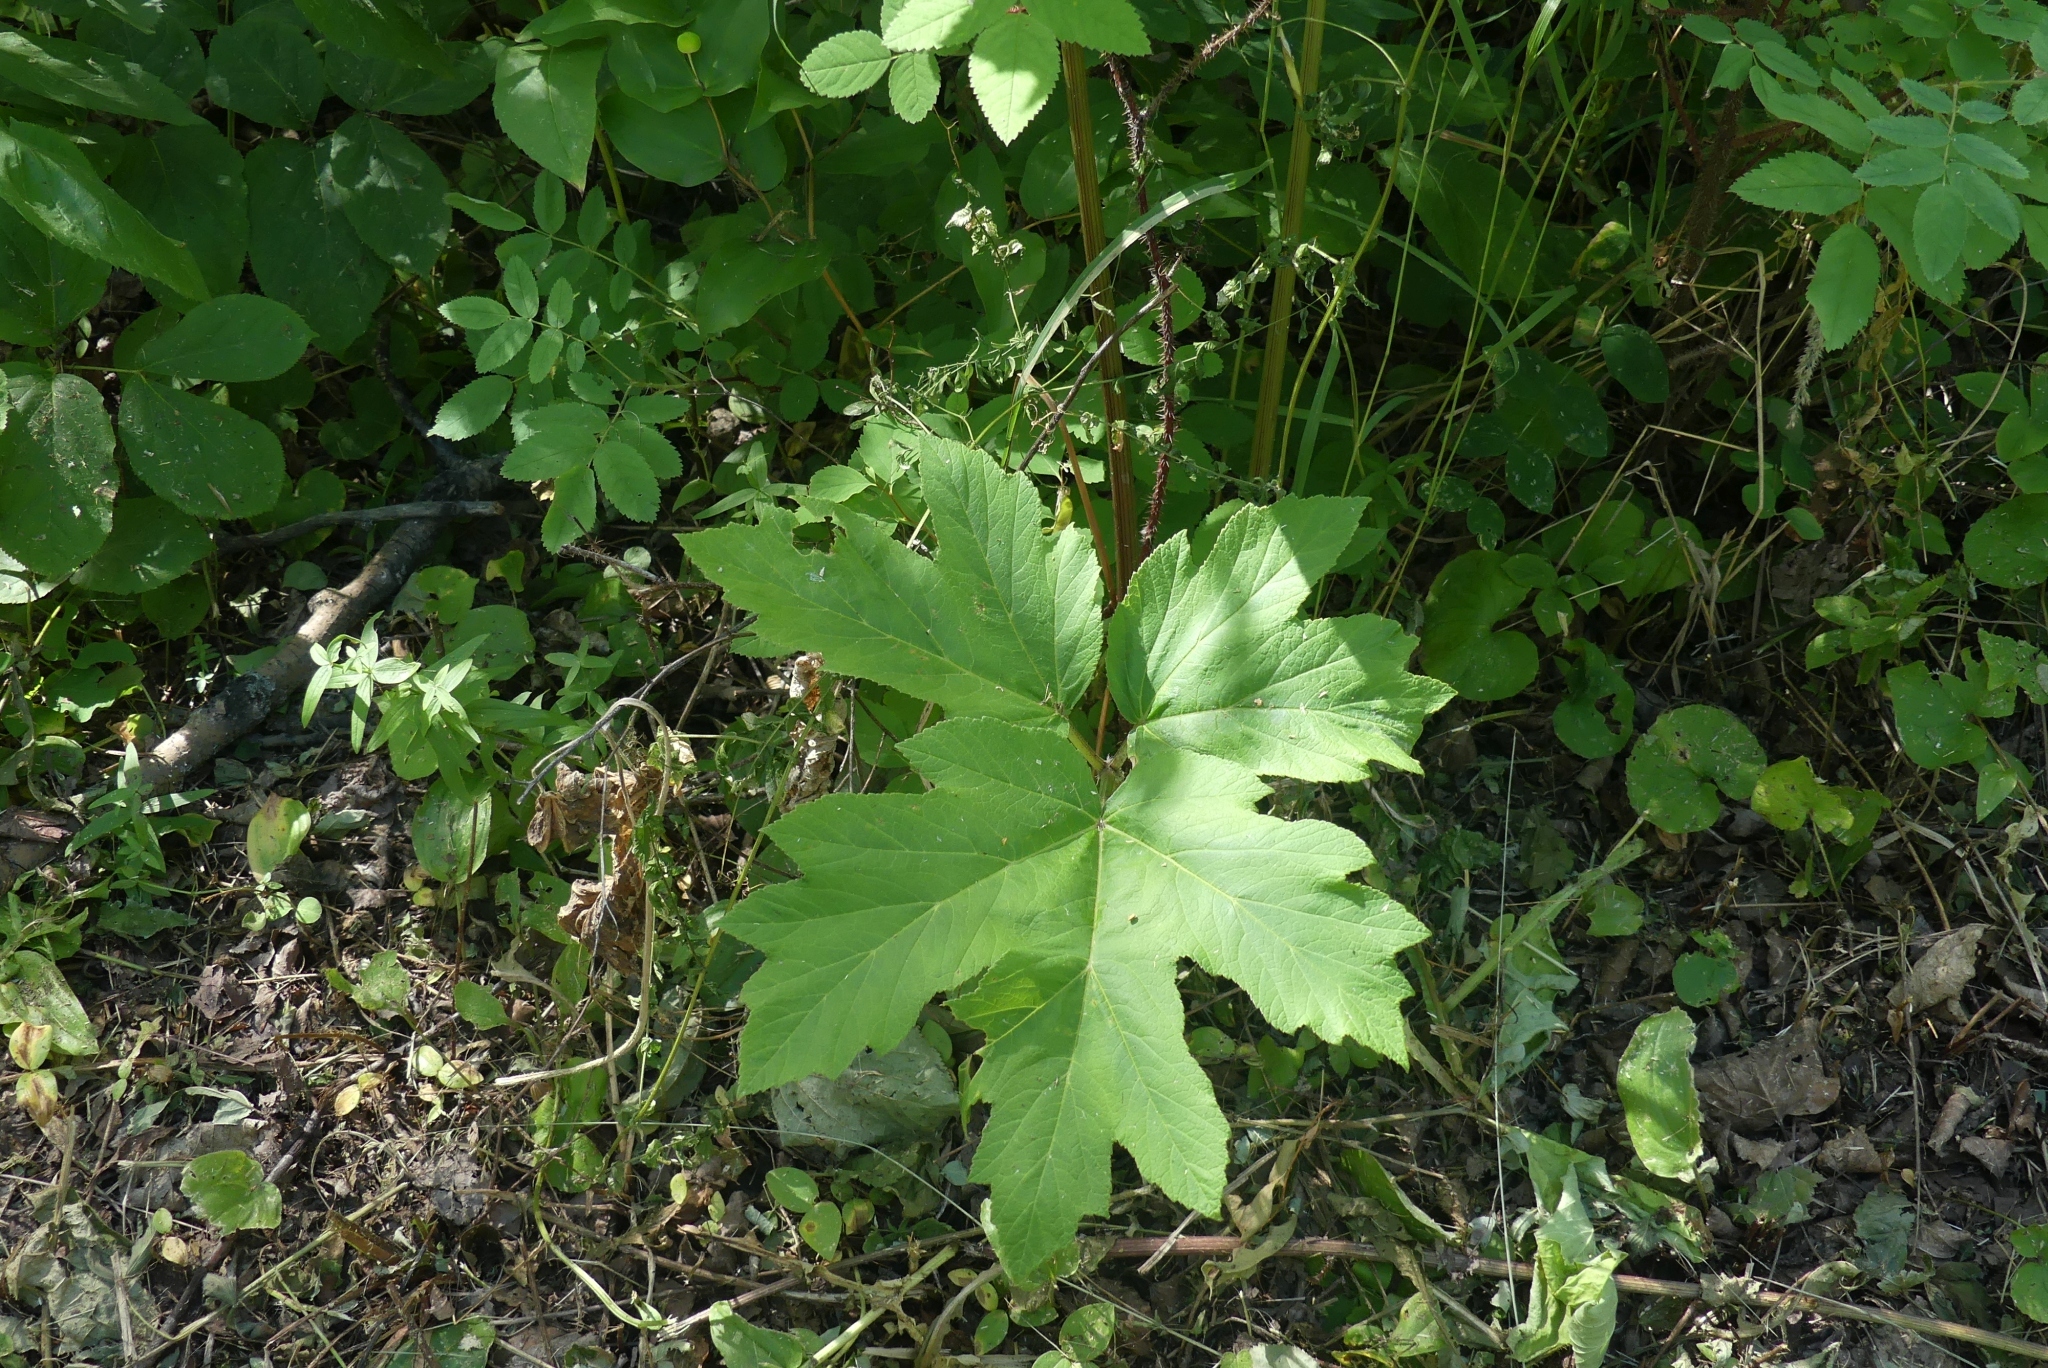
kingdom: Plantae
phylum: Tracheophyta
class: Magnoliopsida
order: Apiales
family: Apiaceae
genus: Heracleum
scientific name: Heracleum maximum
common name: American cow parsnip
